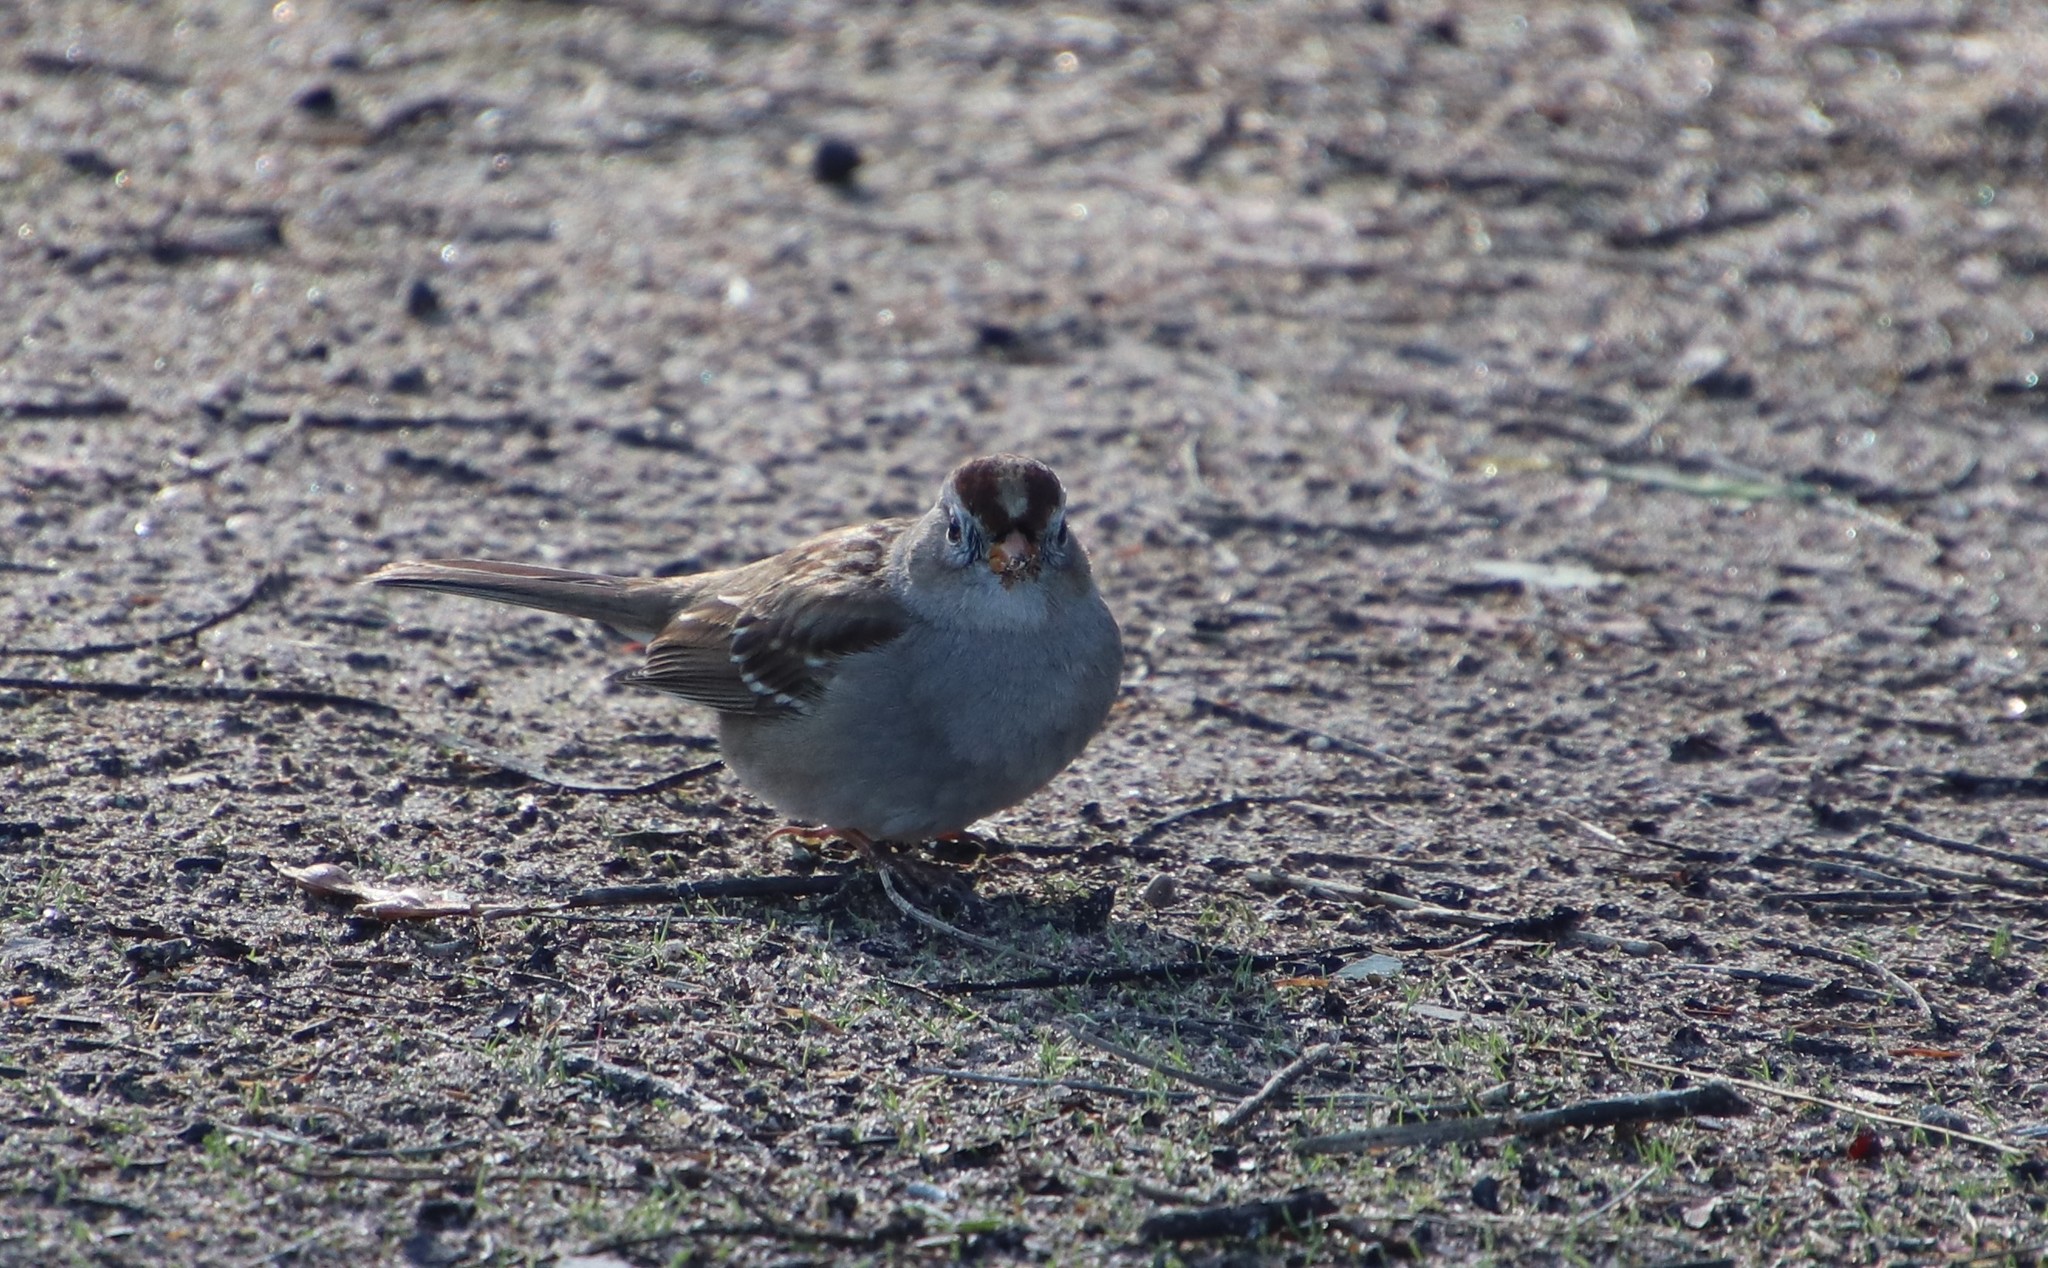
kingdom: Animalia
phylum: Chordata
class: Aves
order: Passeriformes
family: Passerellidae
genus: Zonotrichia
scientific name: Zonotrichia leucophrys
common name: White-crowned sparrow
